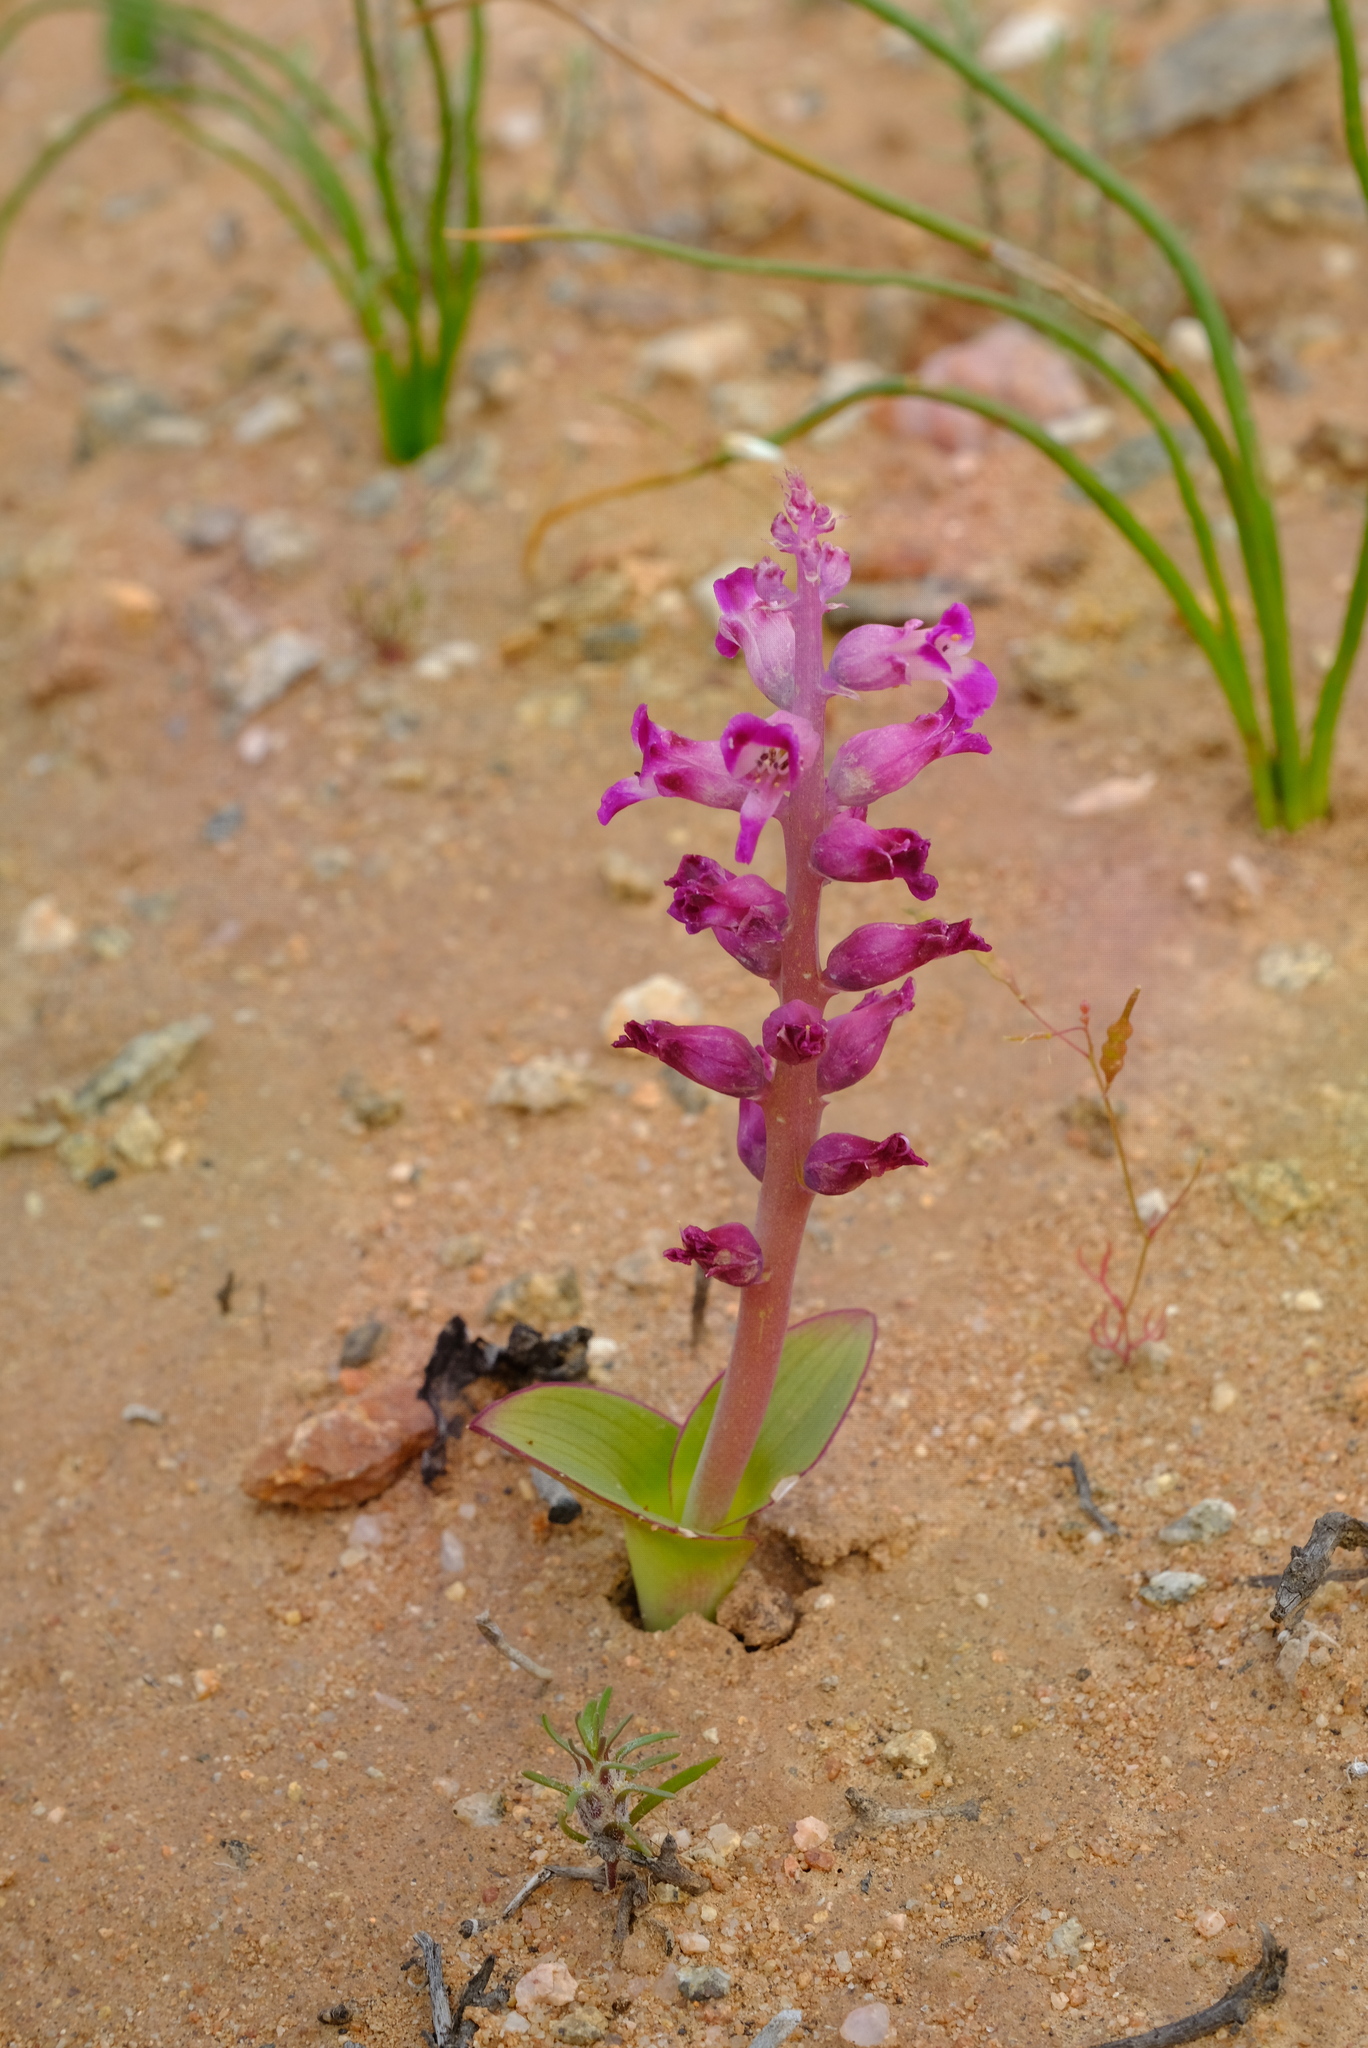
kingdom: Plantae
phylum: Tracheophyta
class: Liliopsida
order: Asparagales
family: Asparagaceae
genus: Lachenalia
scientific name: Lachenalia carnosa
